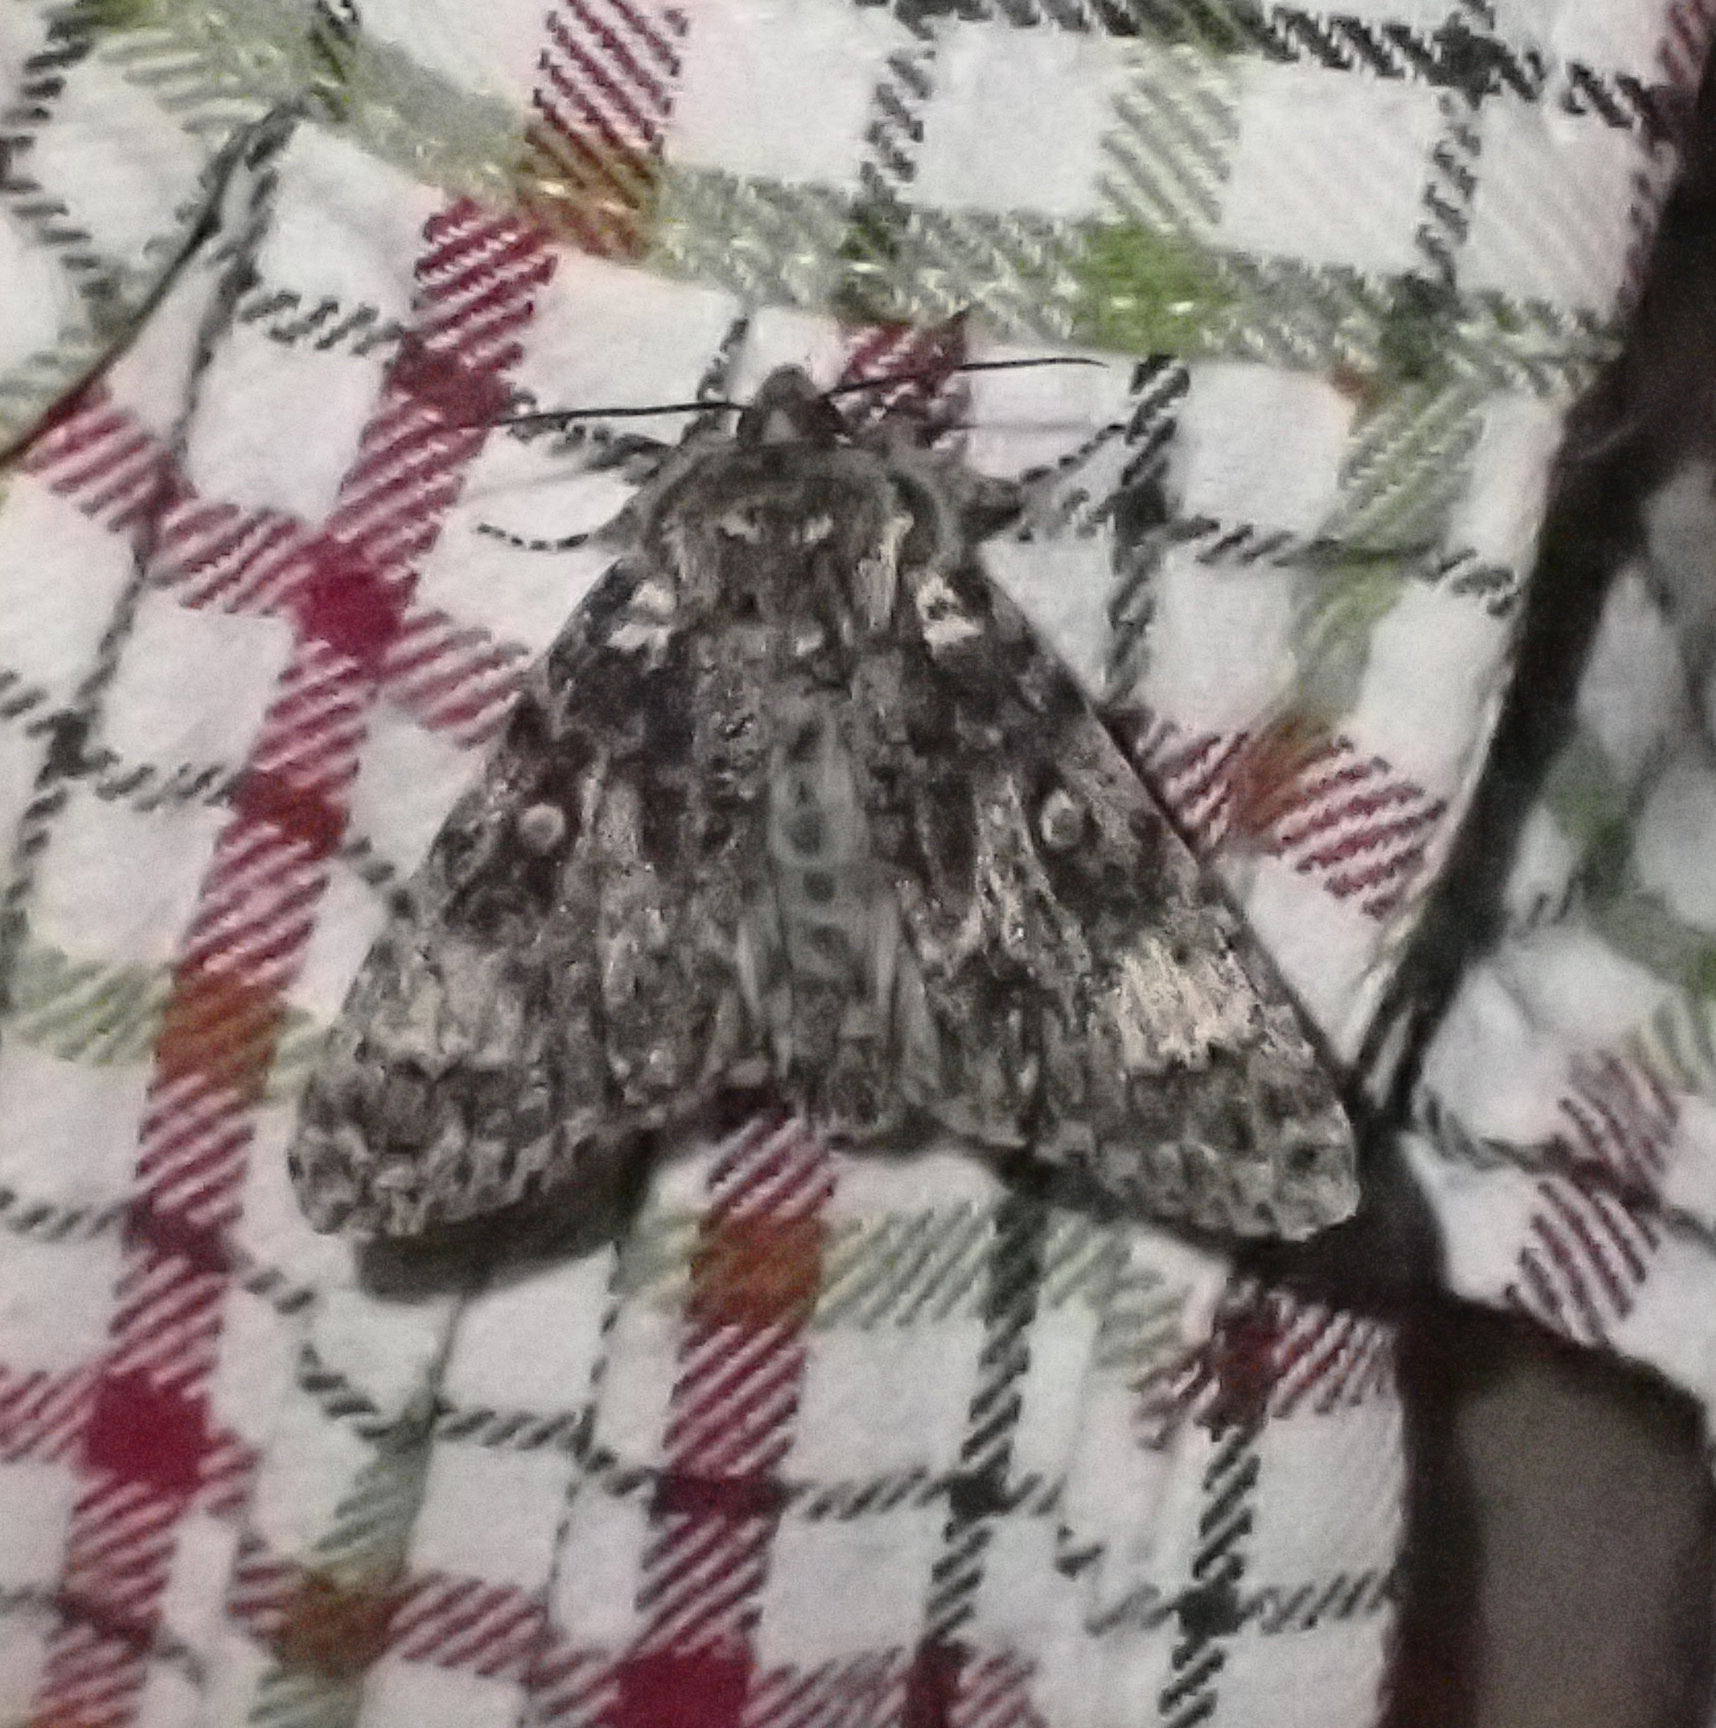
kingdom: Animalia
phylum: Arthropoda
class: Insecta
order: Lepidoptera
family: Noctuidae
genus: Acronicta
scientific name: Acronicta megacephala
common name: Poplar grey
